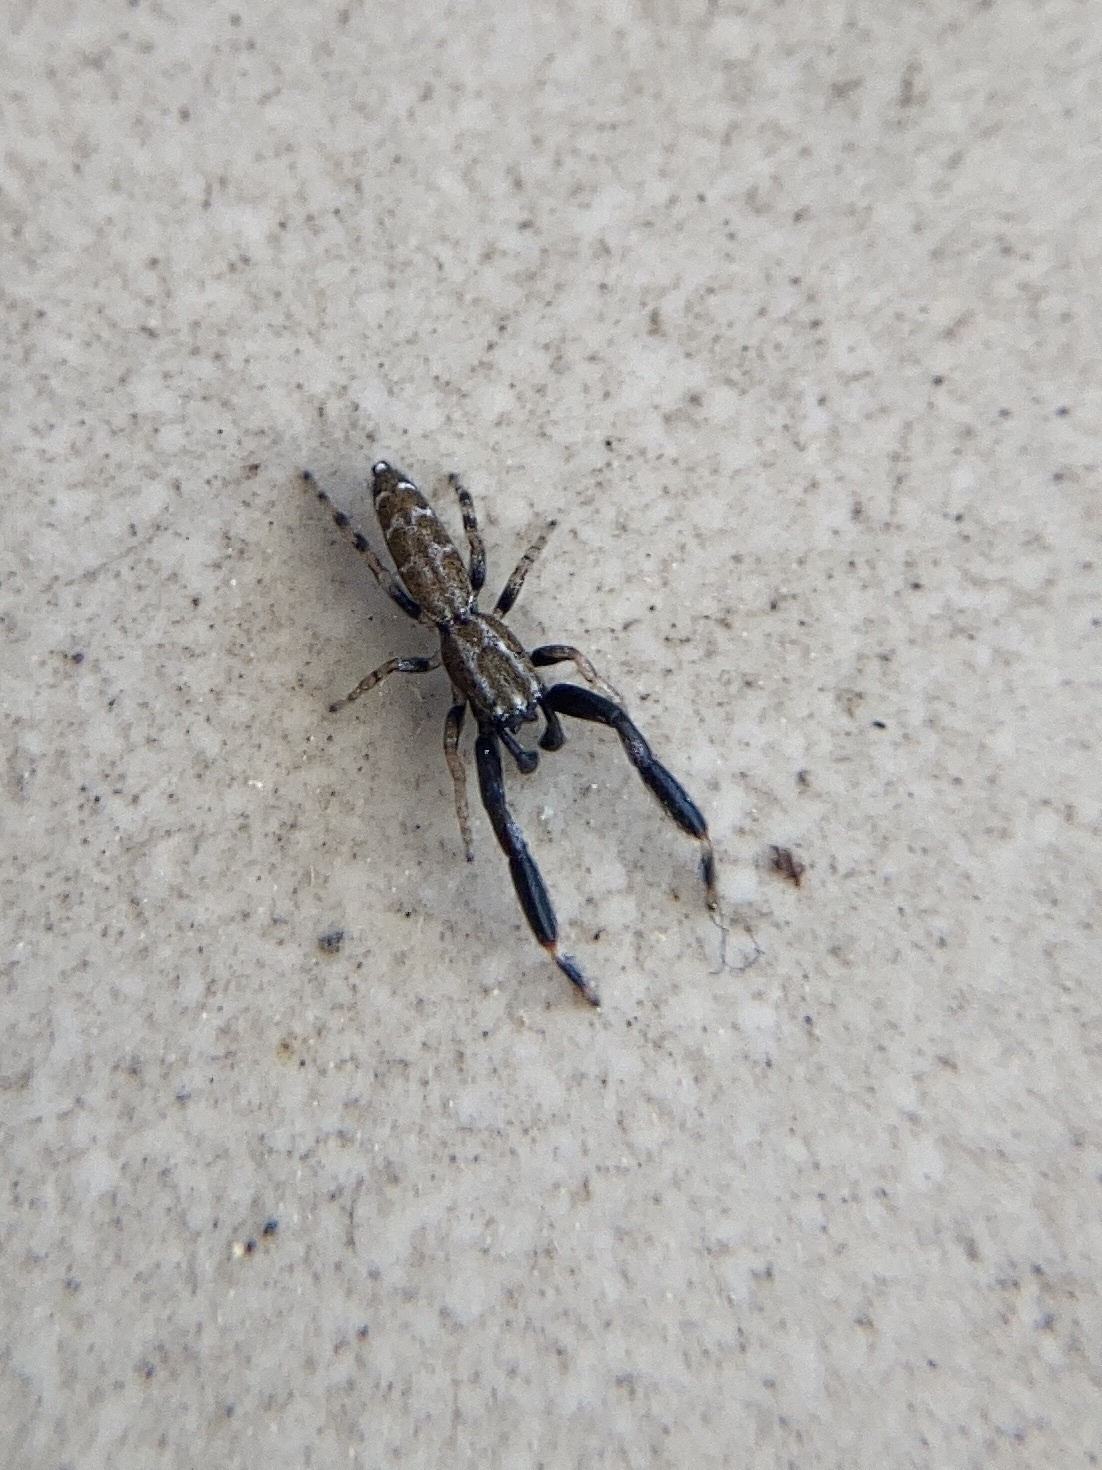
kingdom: Animalia
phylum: Arthropoda
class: Arachnida
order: Araneae
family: Salticidae
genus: Marpissa
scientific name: Marpissa nivoyi
